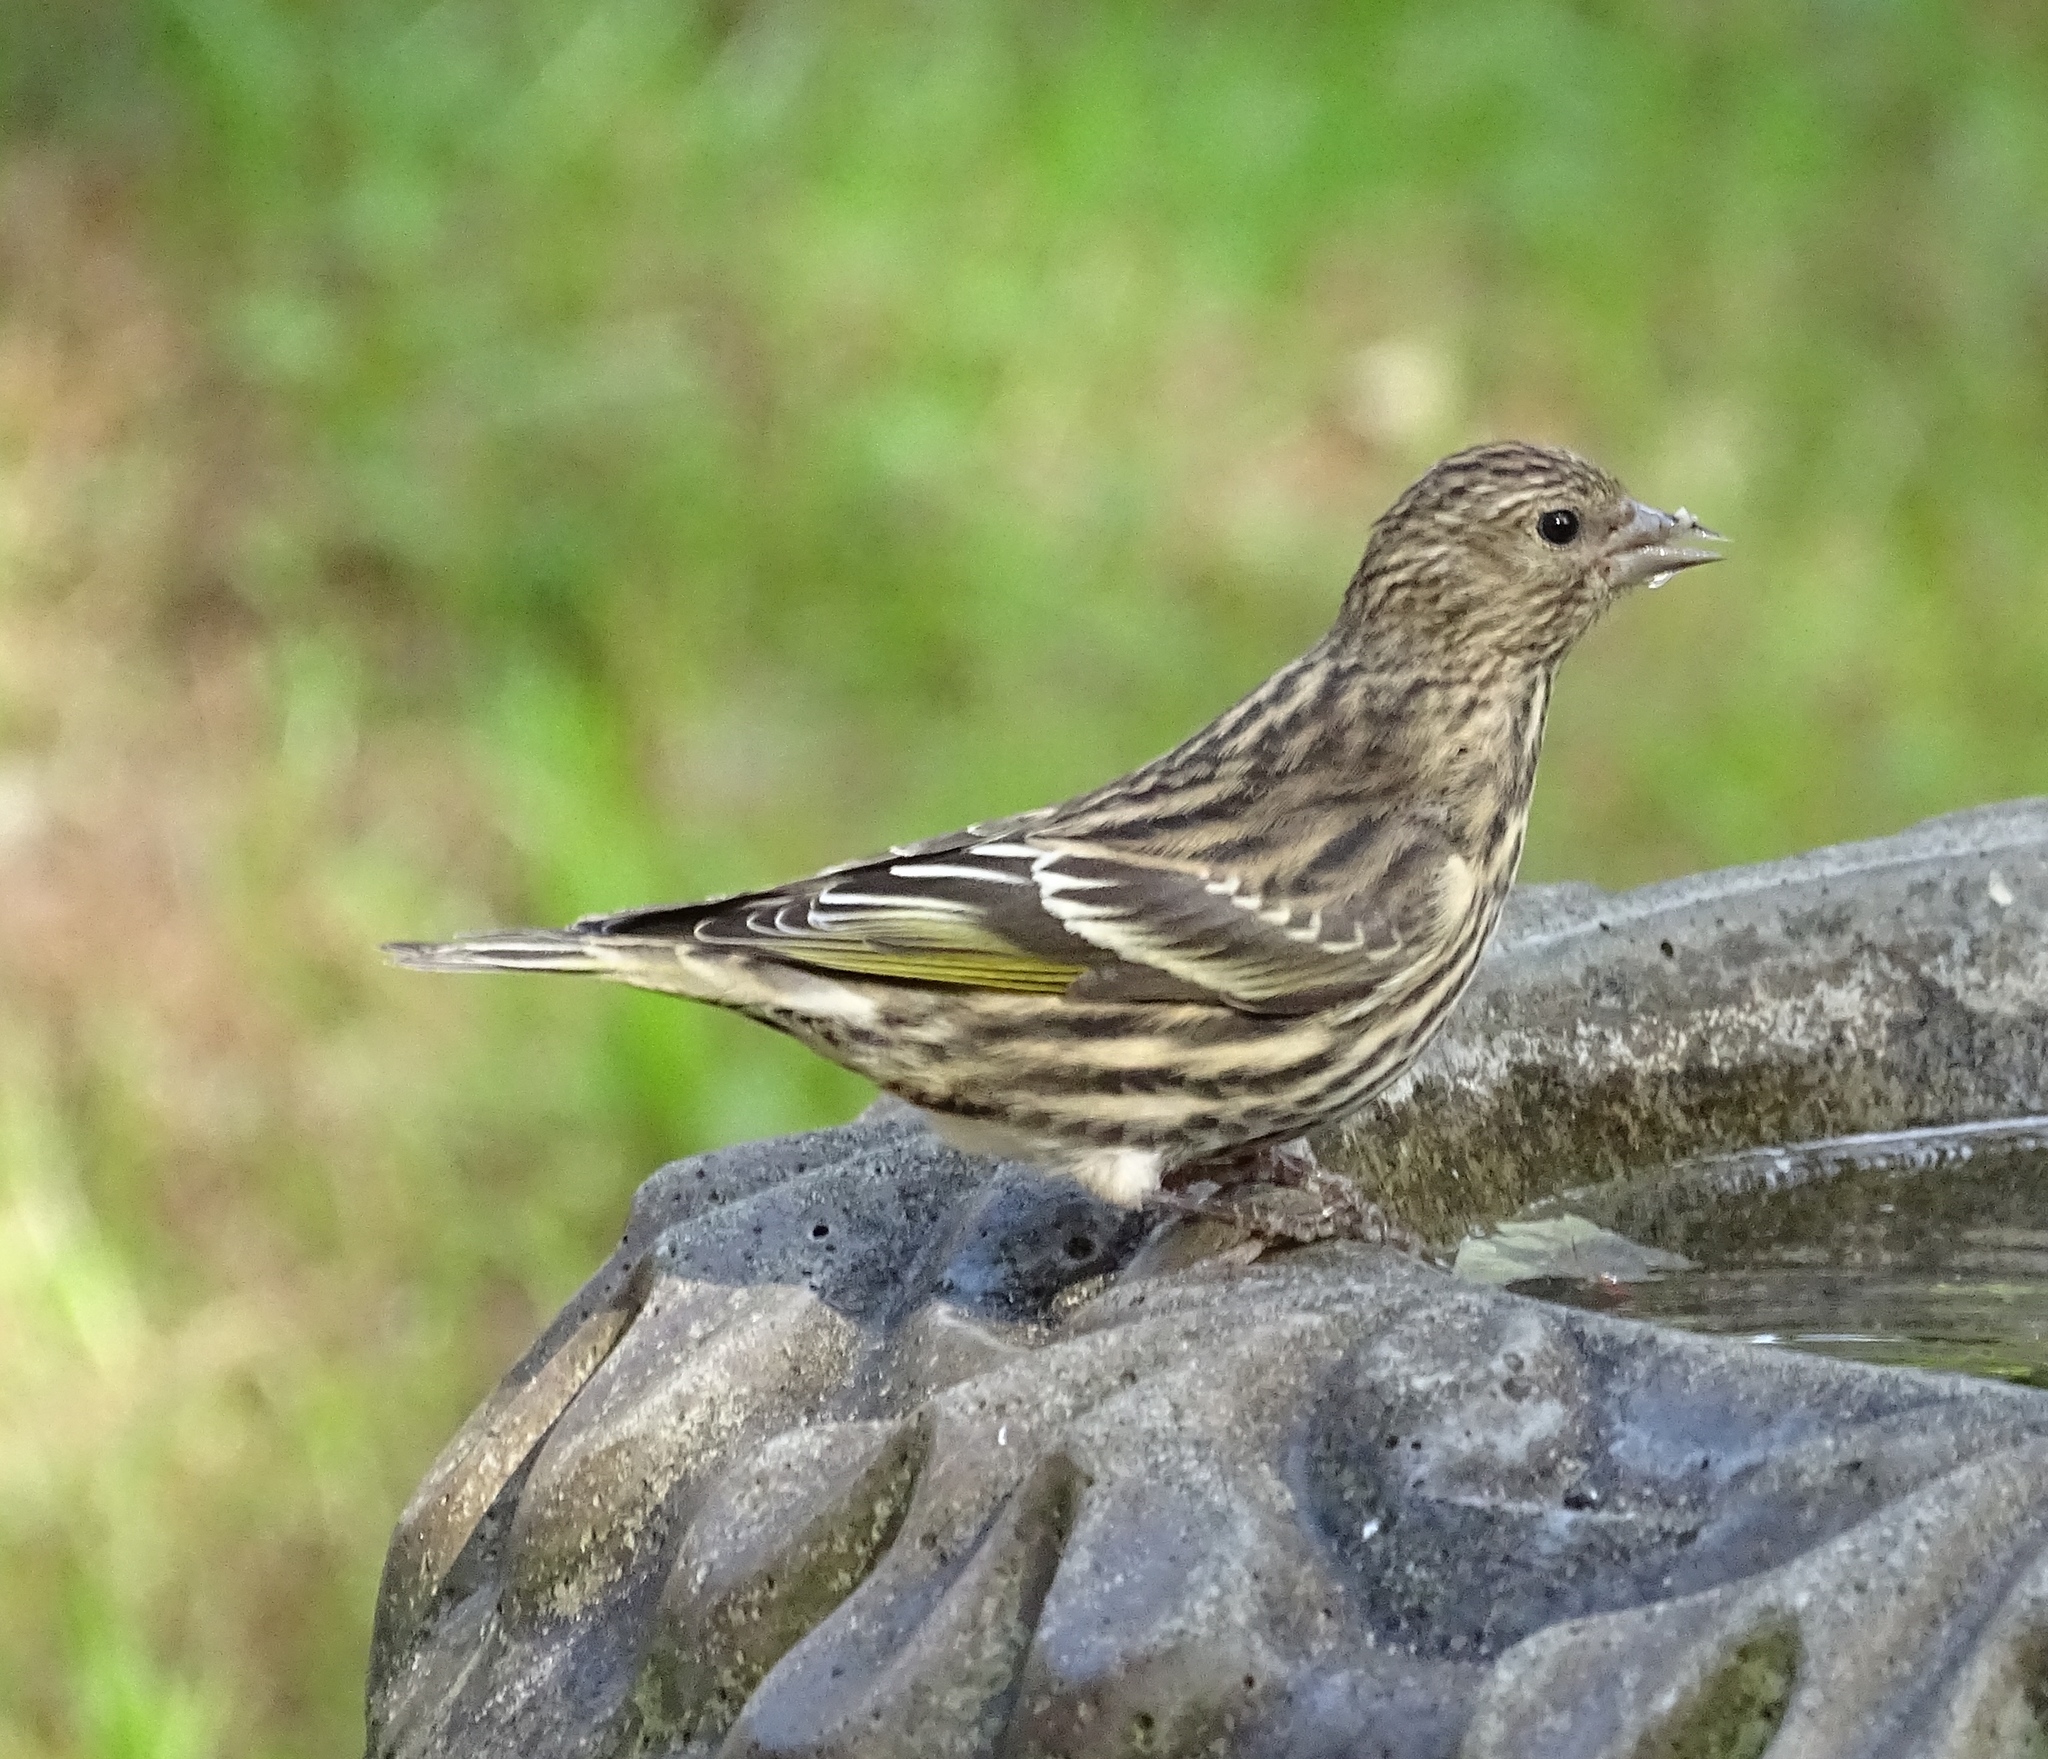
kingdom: Animalia
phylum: Chordata
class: Aves
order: Passeriformes
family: Fringillidae
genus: Spinus
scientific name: Spinus pinus
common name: Pine siskin
